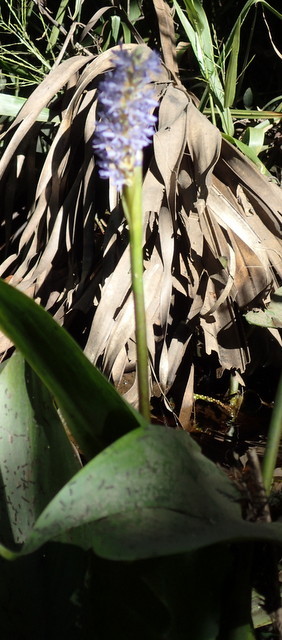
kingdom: Plantae
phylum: Tracheophyta
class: Liliopsida
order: Commelinales
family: Pontederiaceae
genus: Pontederia
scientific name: Pontederia cordata
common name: Pickerelweed
